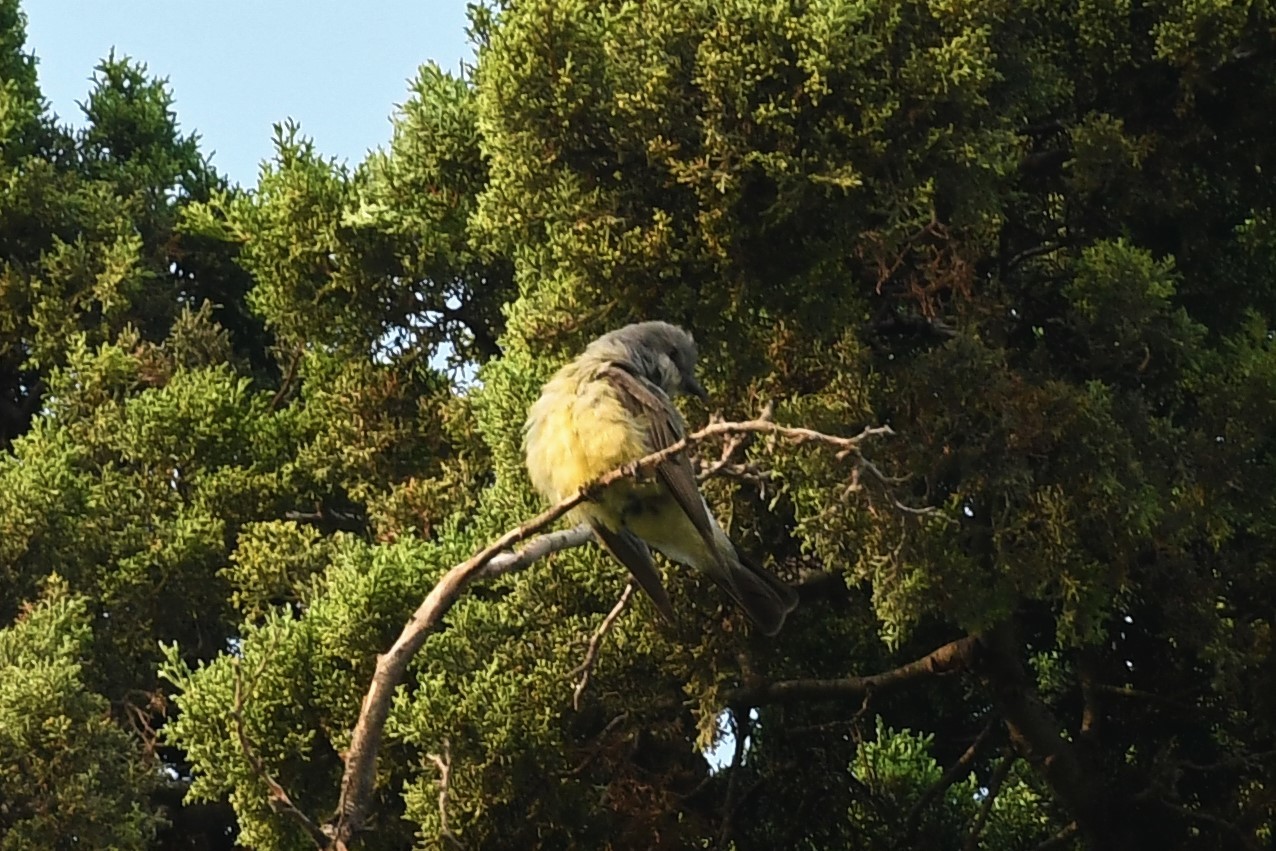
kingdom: Animalia
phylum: Chordata
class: Aves
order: Passeriformes
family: Tyrannidae
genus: Tyrannus
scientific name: Tyrannus vociferans
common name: Cassin's kingbird
